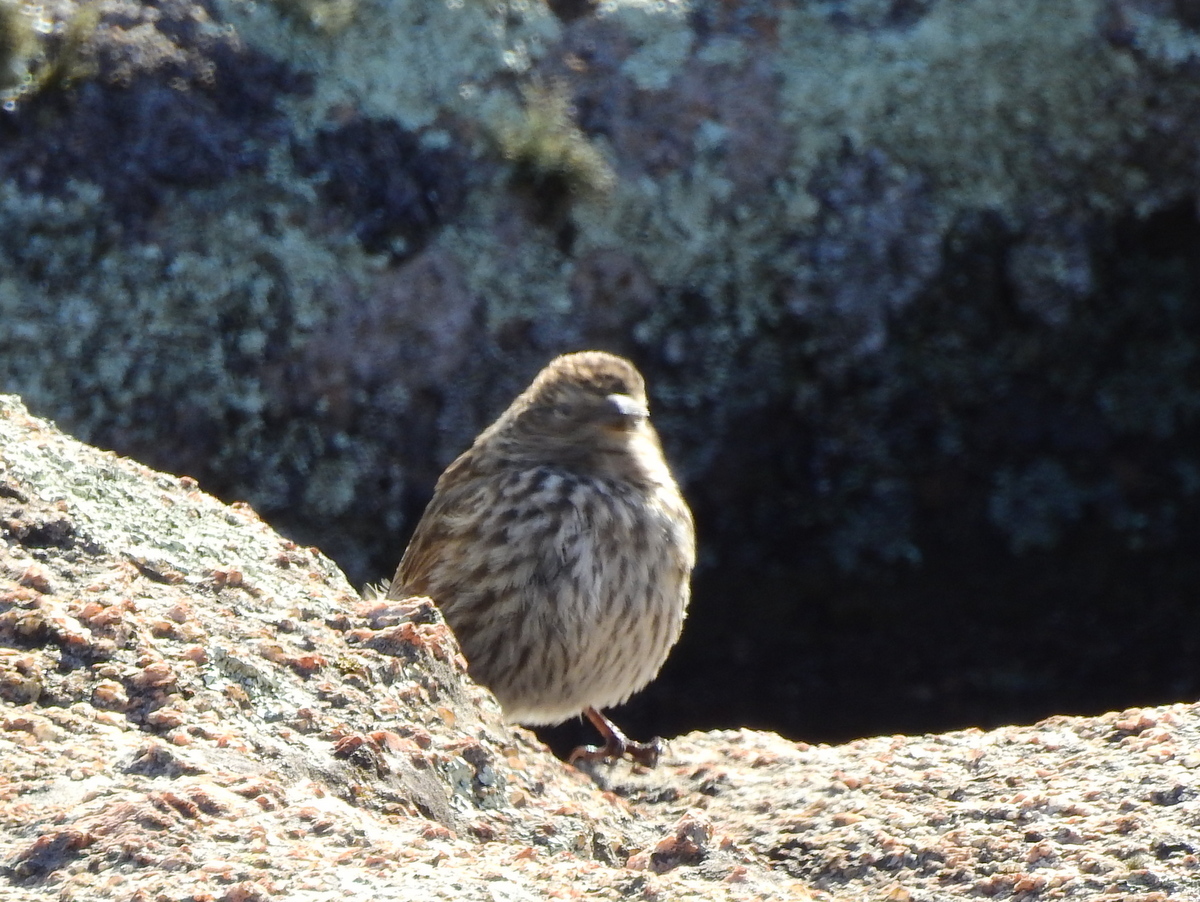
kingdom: Animalia
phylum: Chordata
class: Aves
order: Passeriformes
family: Thraupidae
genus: Geospizopsis
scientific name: Geospizopsis unicolor
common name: Plumbeous sierra-finch
